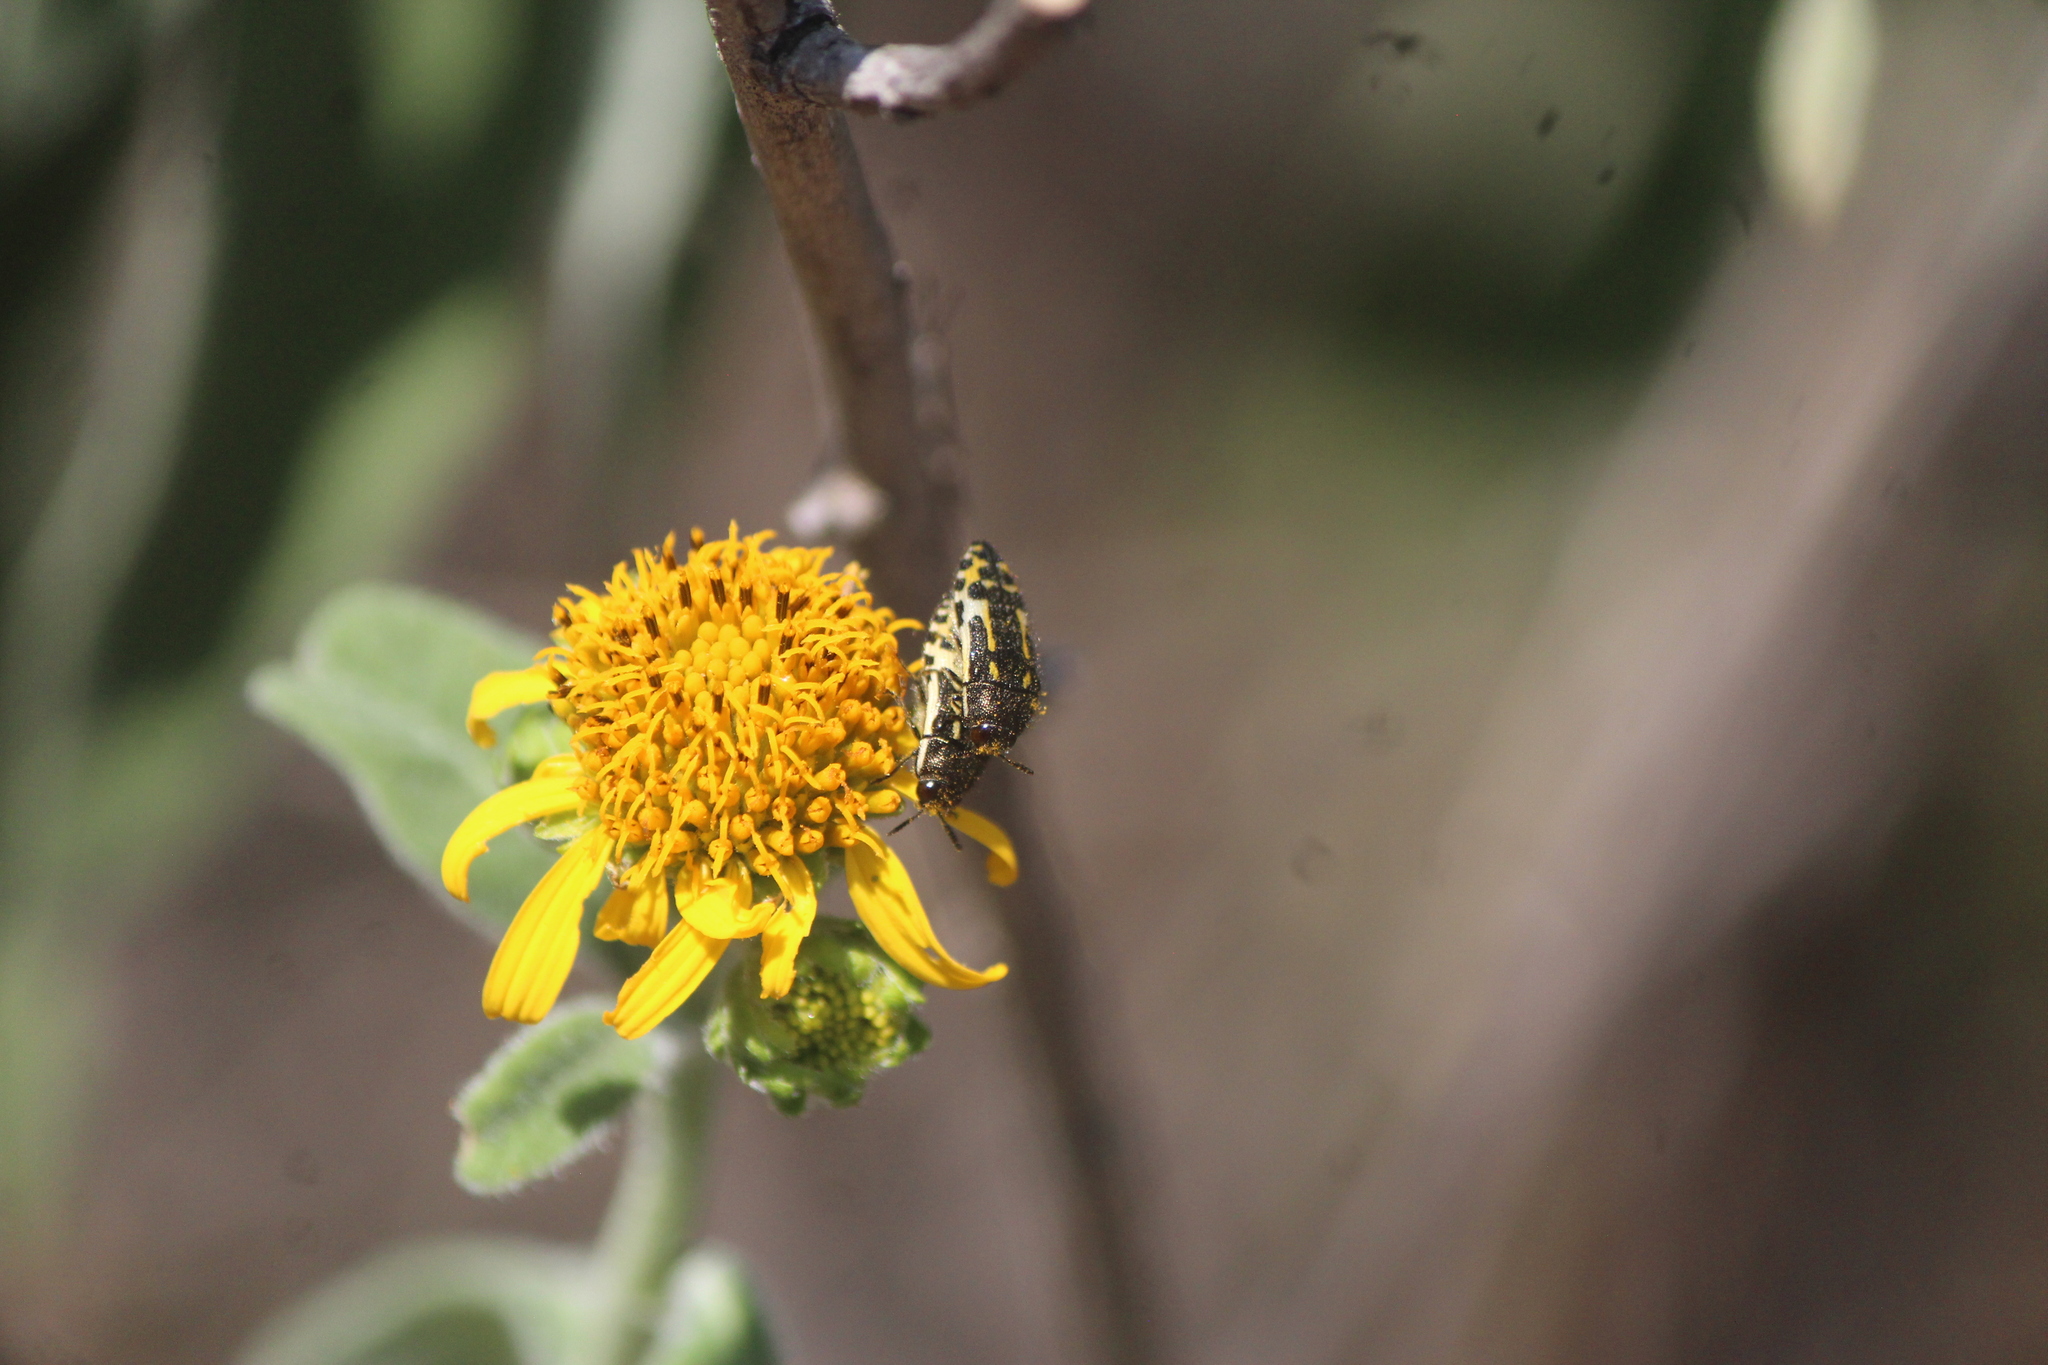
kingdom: Animalia
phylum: Arthropoda
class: Insecta
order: Coleoptera
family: Buprestidae
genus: Acmaeodera
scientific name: Acmaeodera scalaris
